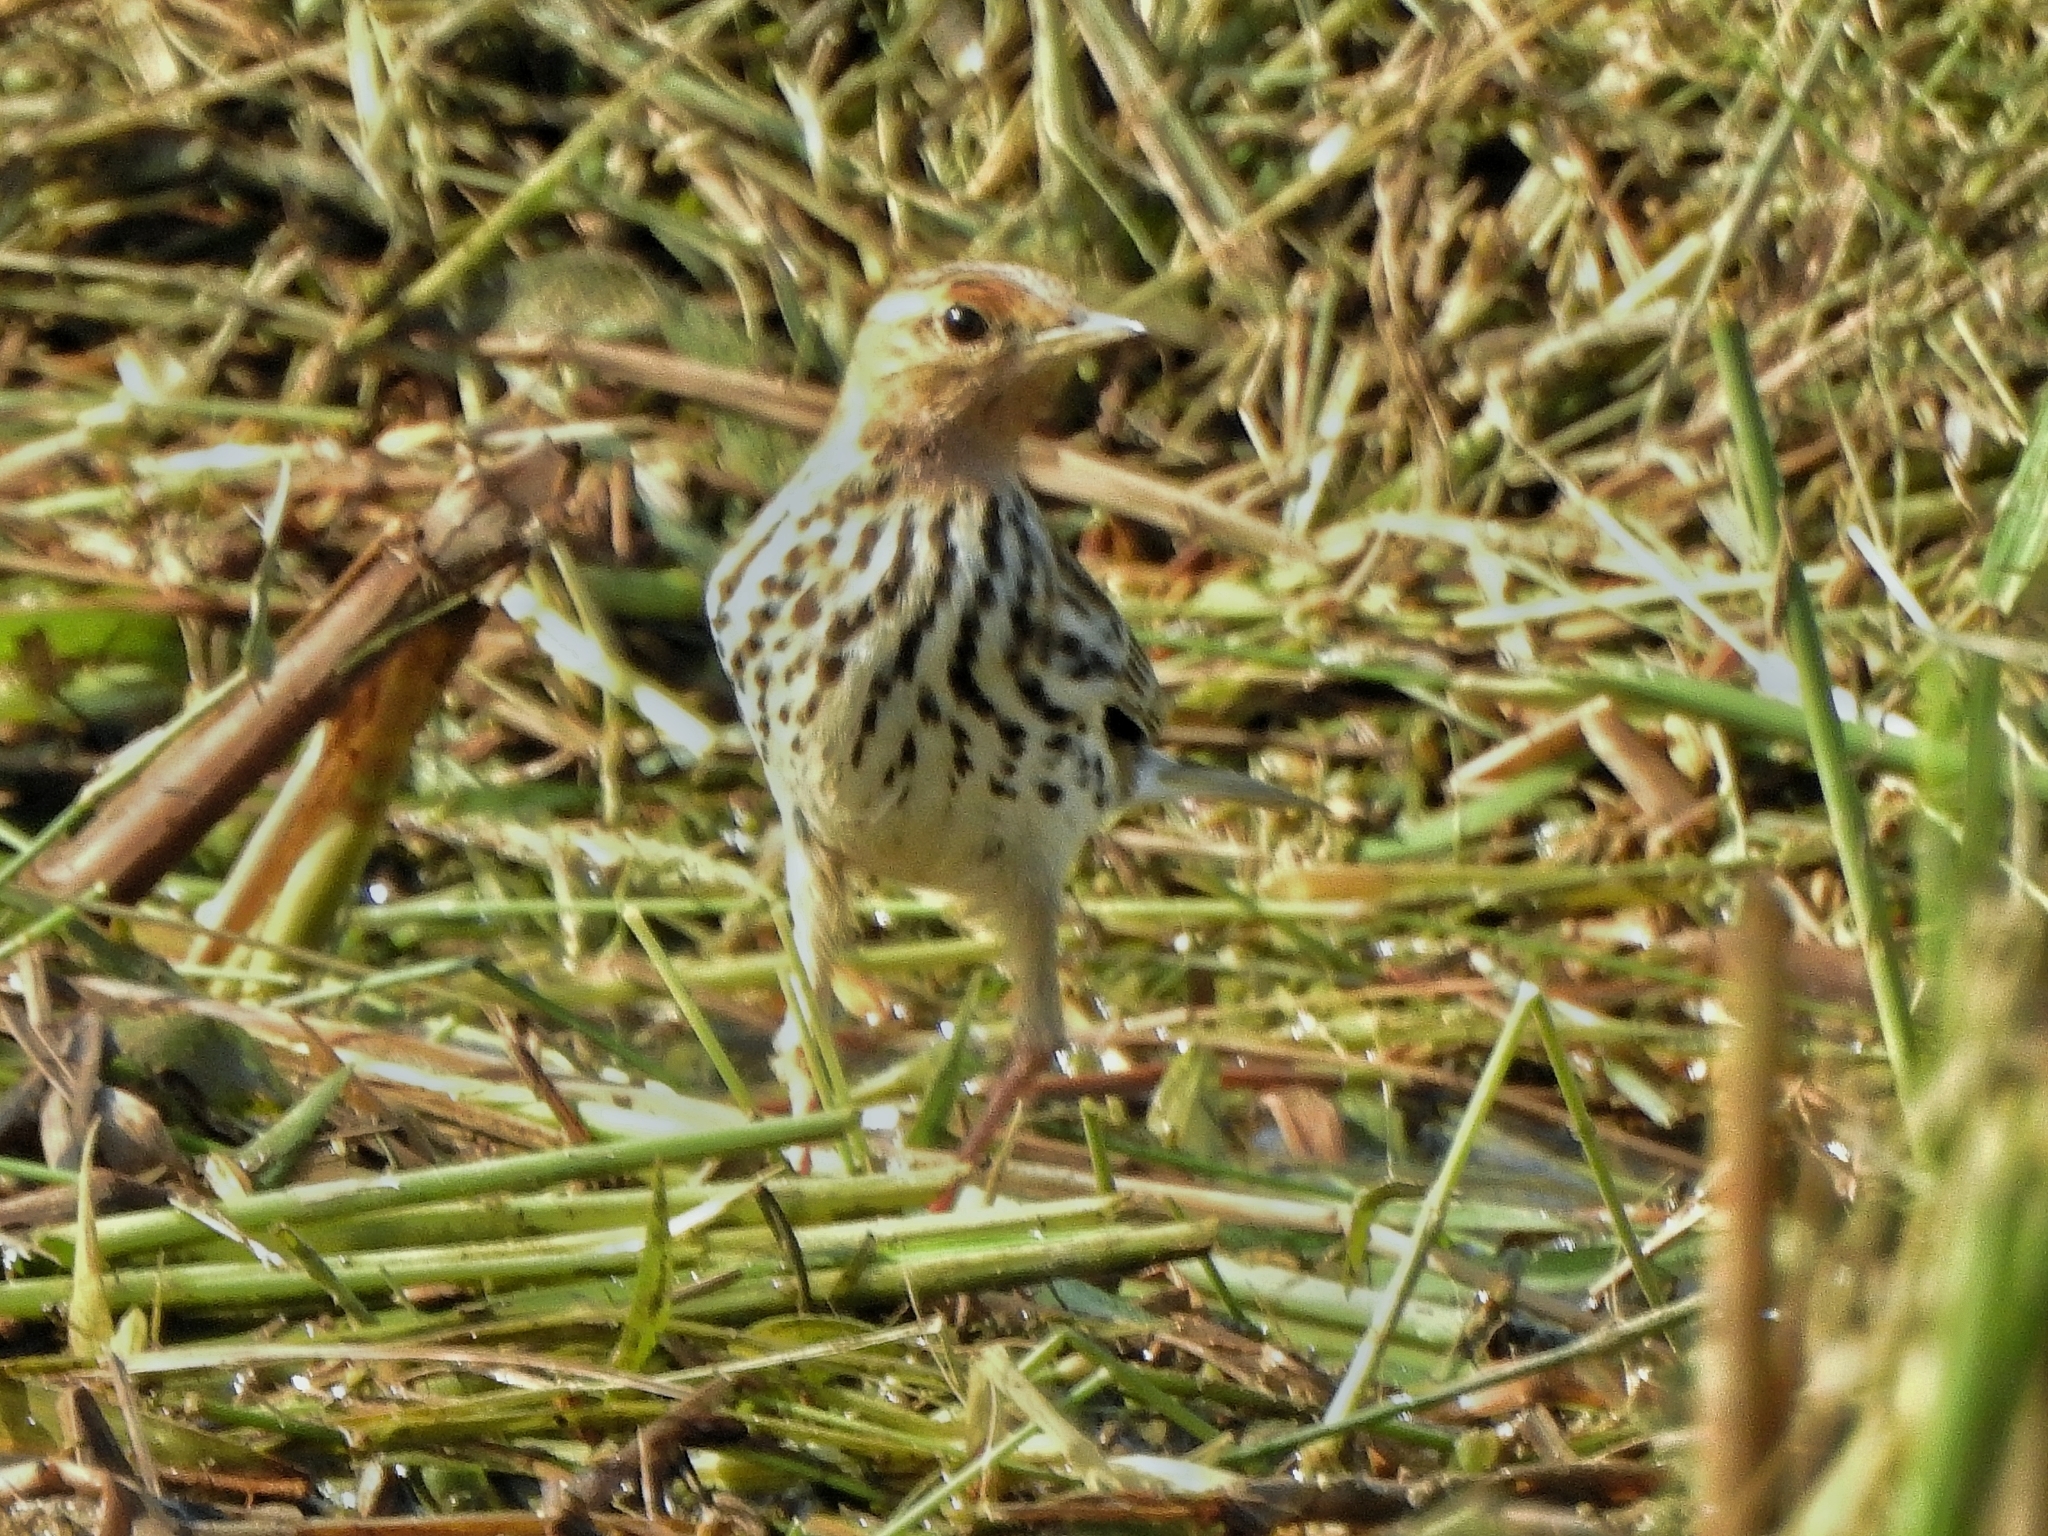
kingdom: Animalia
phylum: Chordata
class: Aves
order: Passeriformes
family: Motacillidae
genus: Anthus
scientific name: Anthus cervinus
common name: Red-throated pipit
